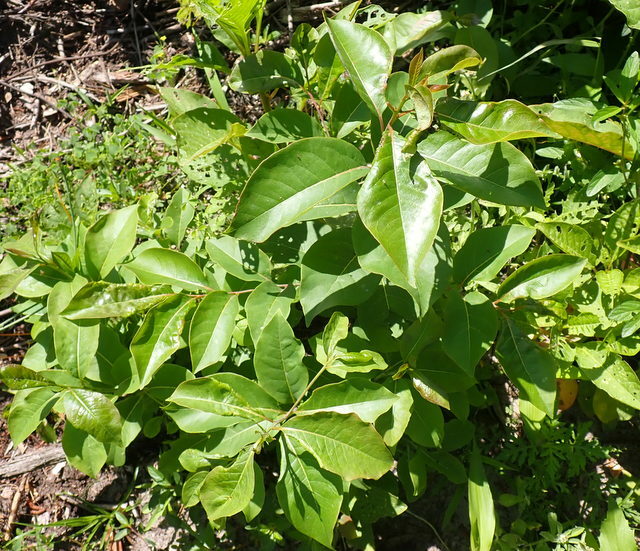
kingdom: Plantae
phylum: Tracheophyta
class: Magnoliopsida
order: Ericales
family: Ebenaceae
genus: Diospyros
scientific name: Diospyros virginiana
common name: Persimmon
